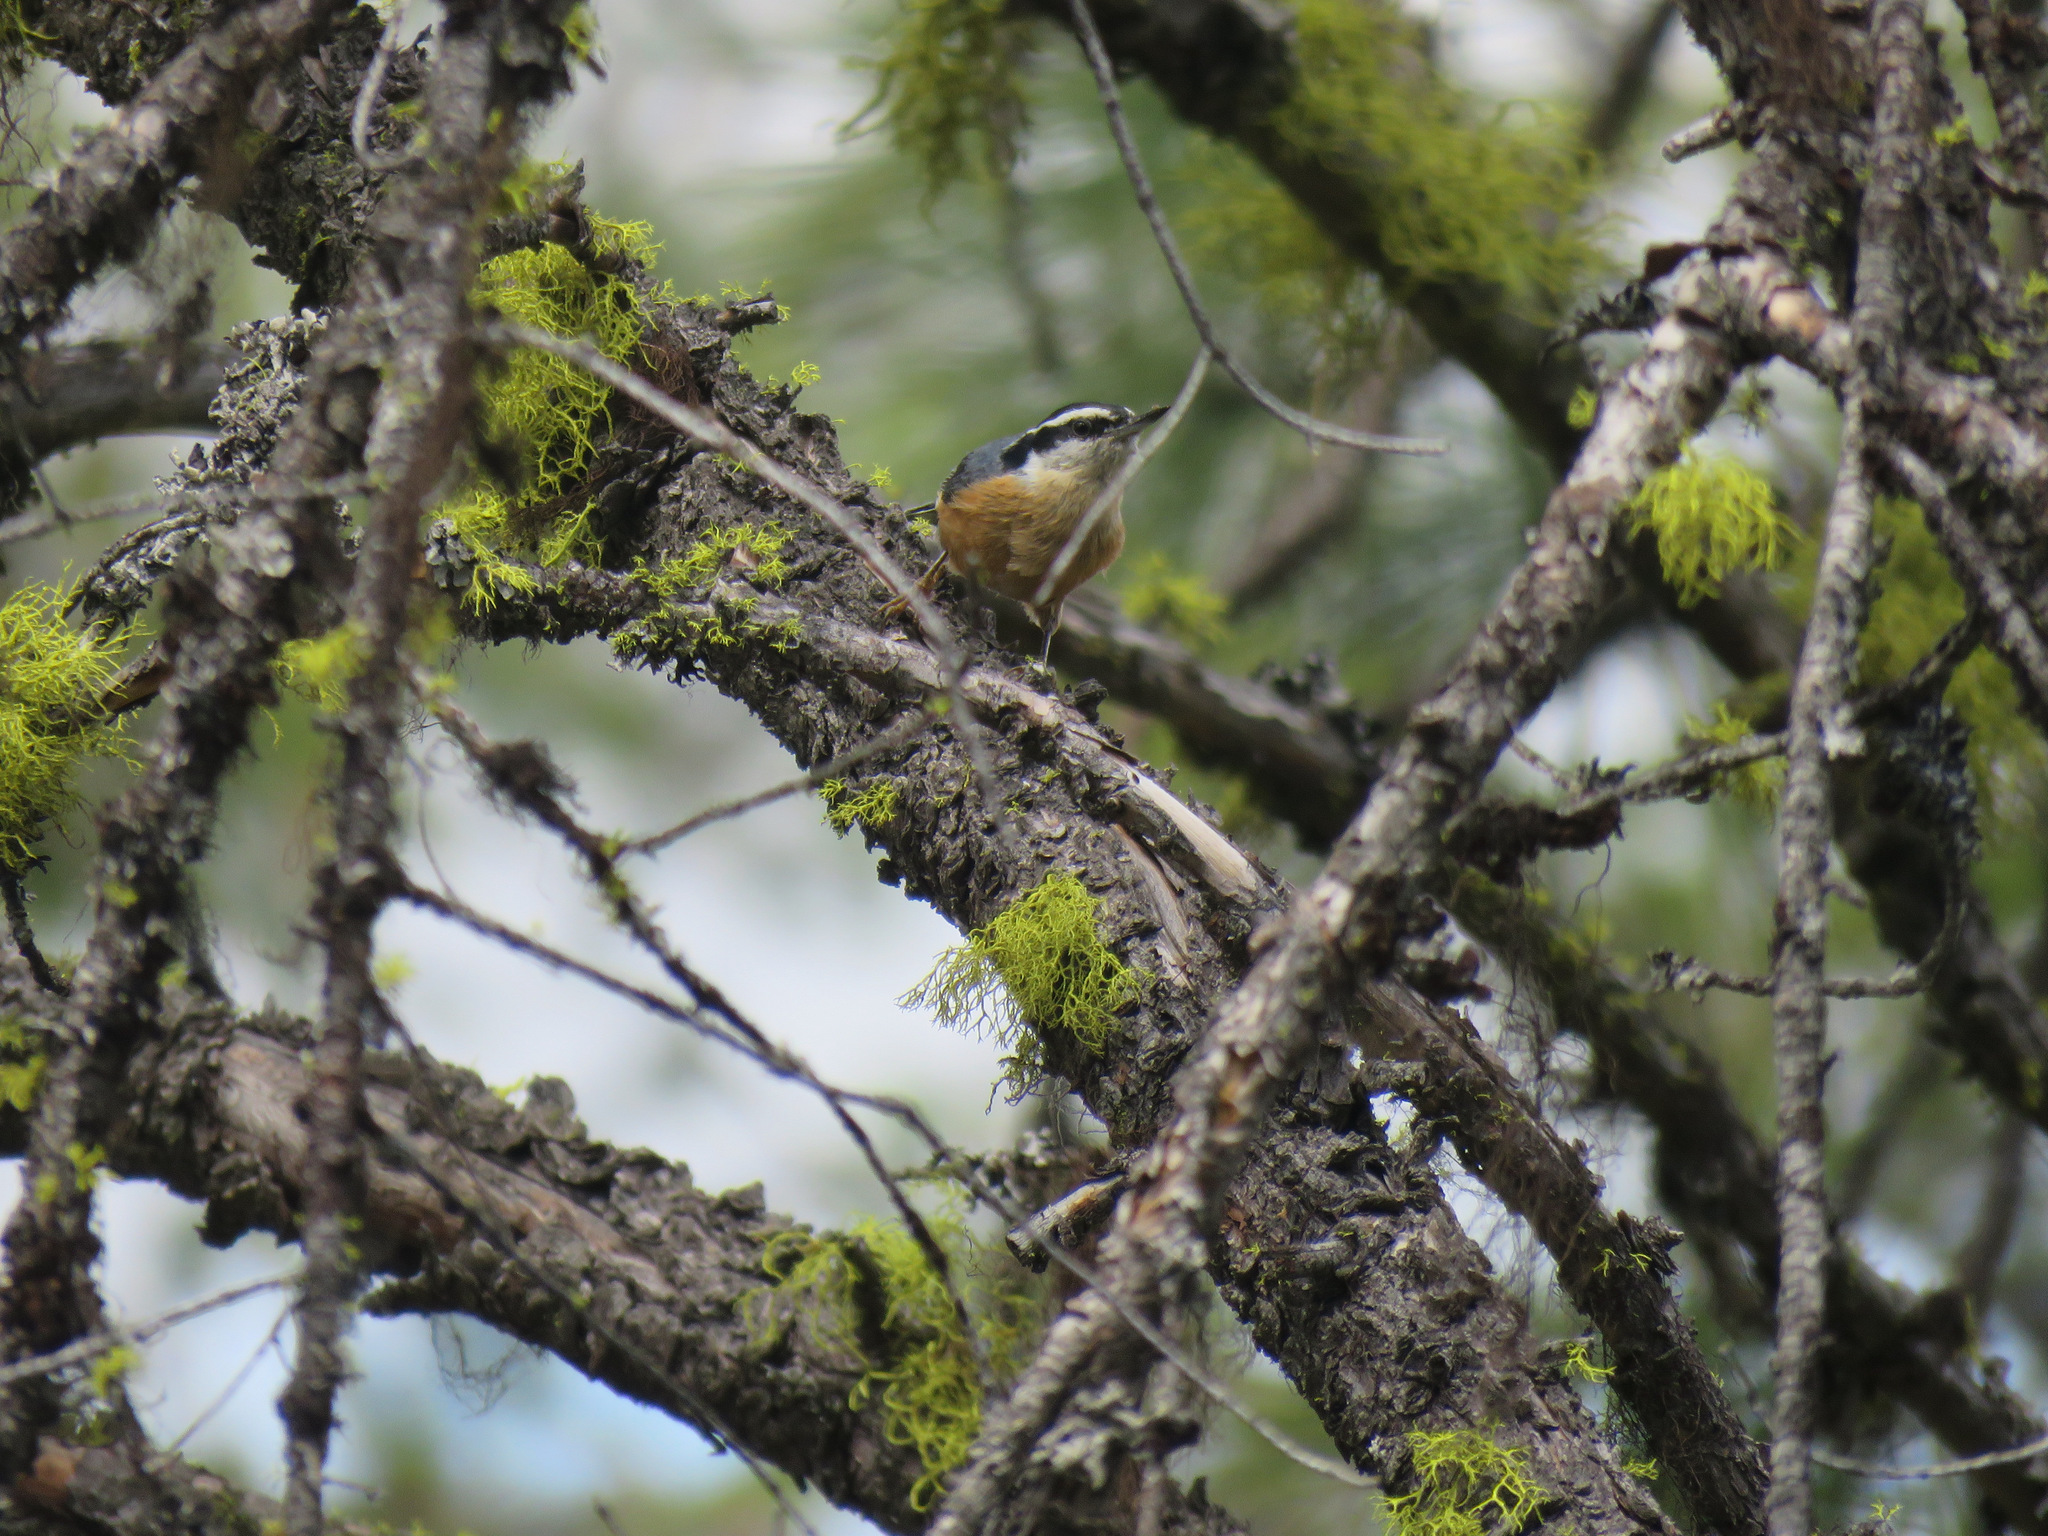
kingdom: Animalia
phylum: Chordata
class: Aves
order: Passeriformes
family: Sittidae
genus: Sitta
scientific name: Sitta canadensis
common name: Red-breasted nuthatch
